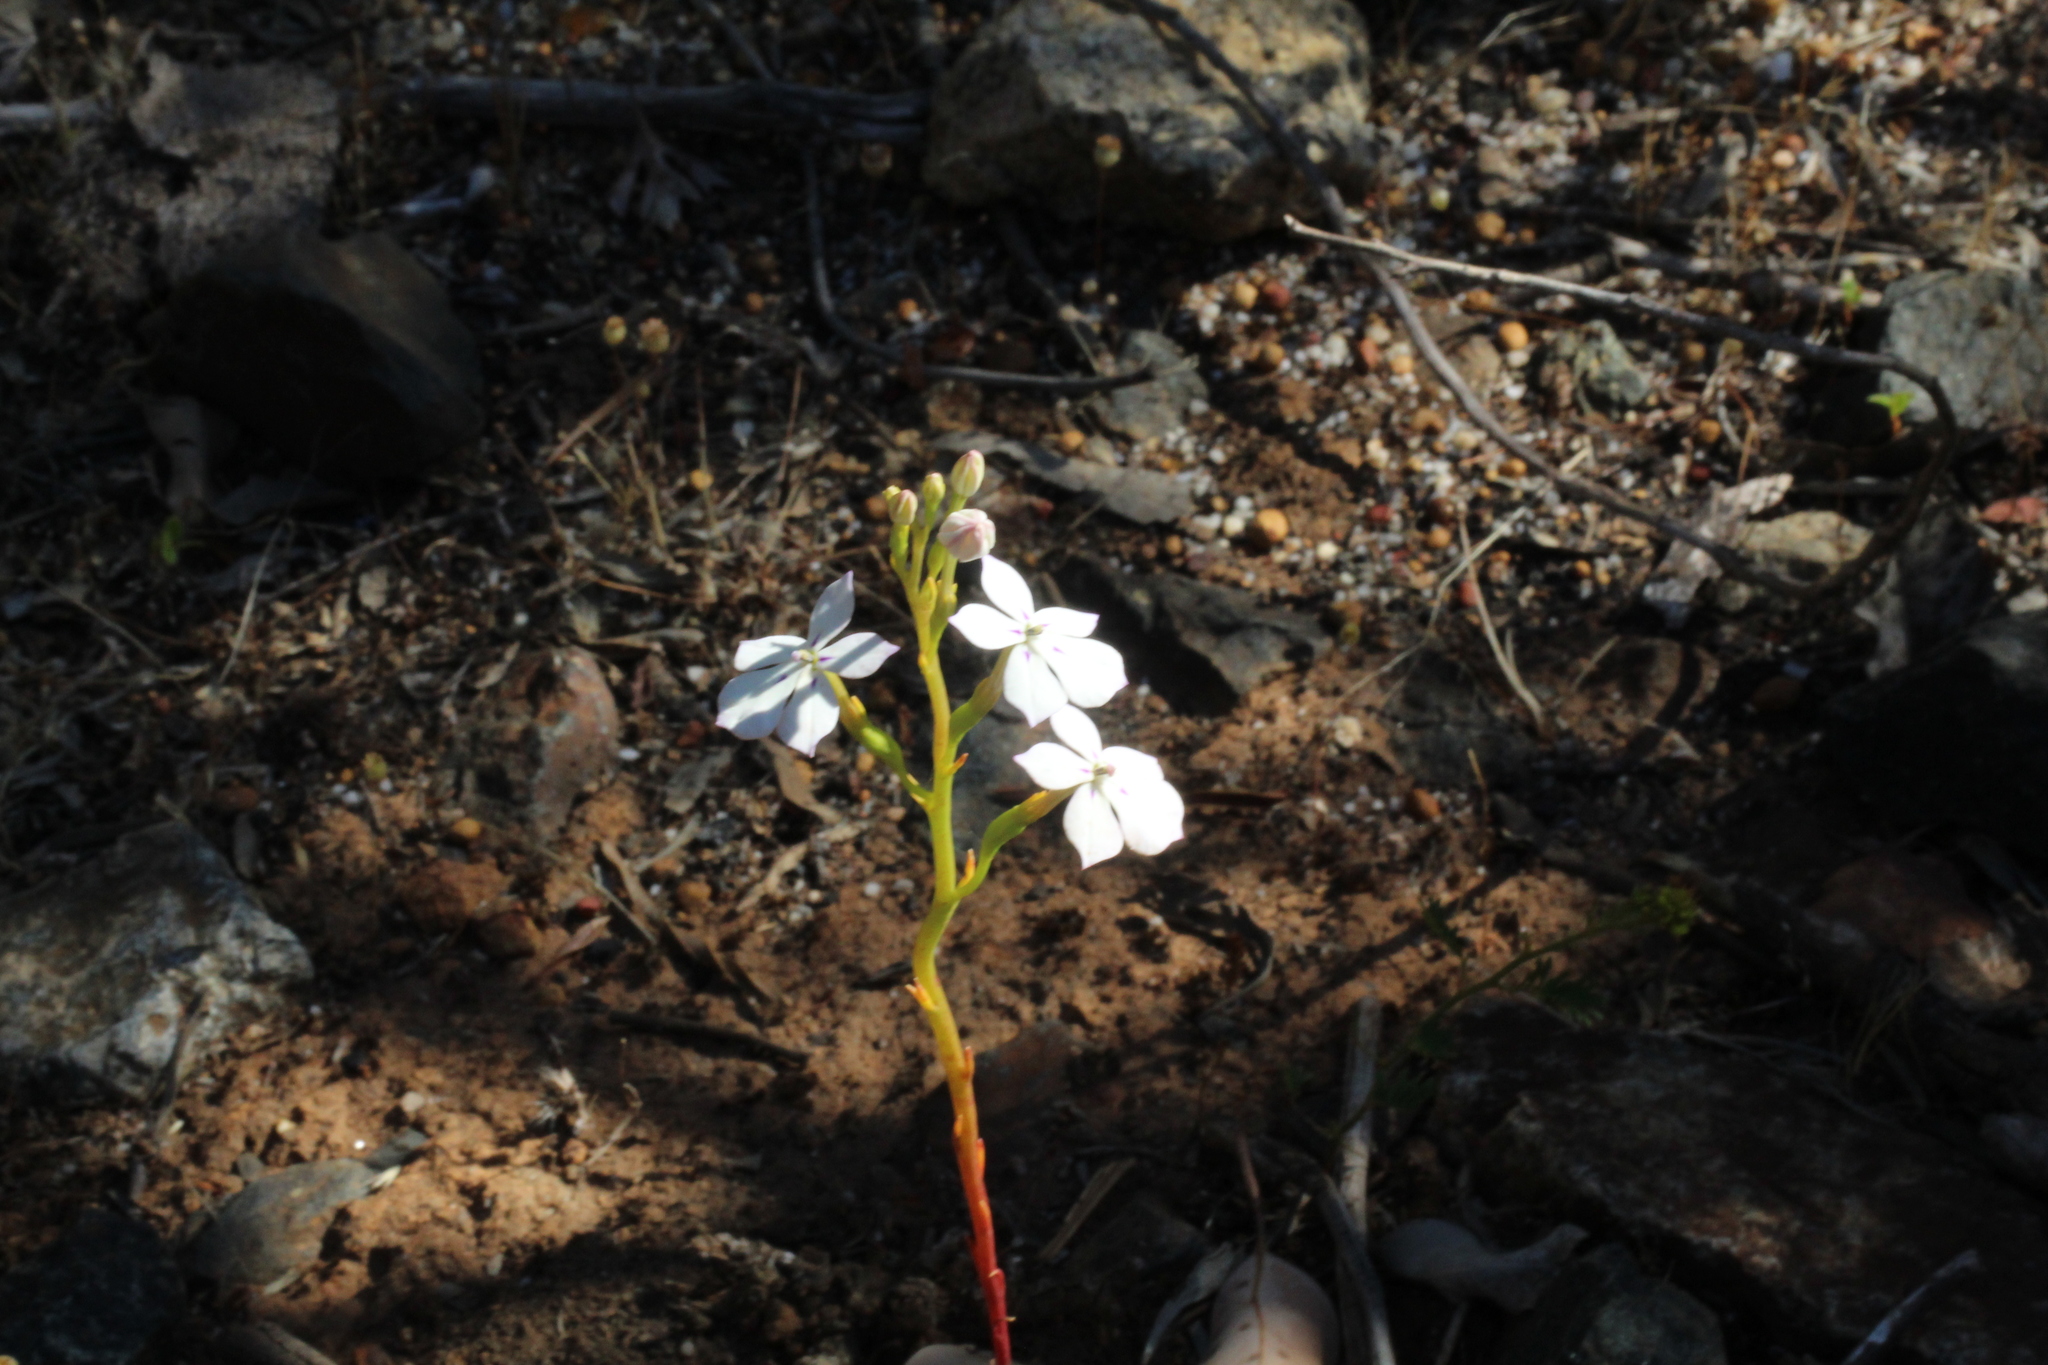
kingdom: Plantae
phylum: Tracheophyta
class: Magnoliopsida
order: Asterales
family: Campanulaceae
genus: Isotoma
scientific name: Isotoma hypocrateriformis
